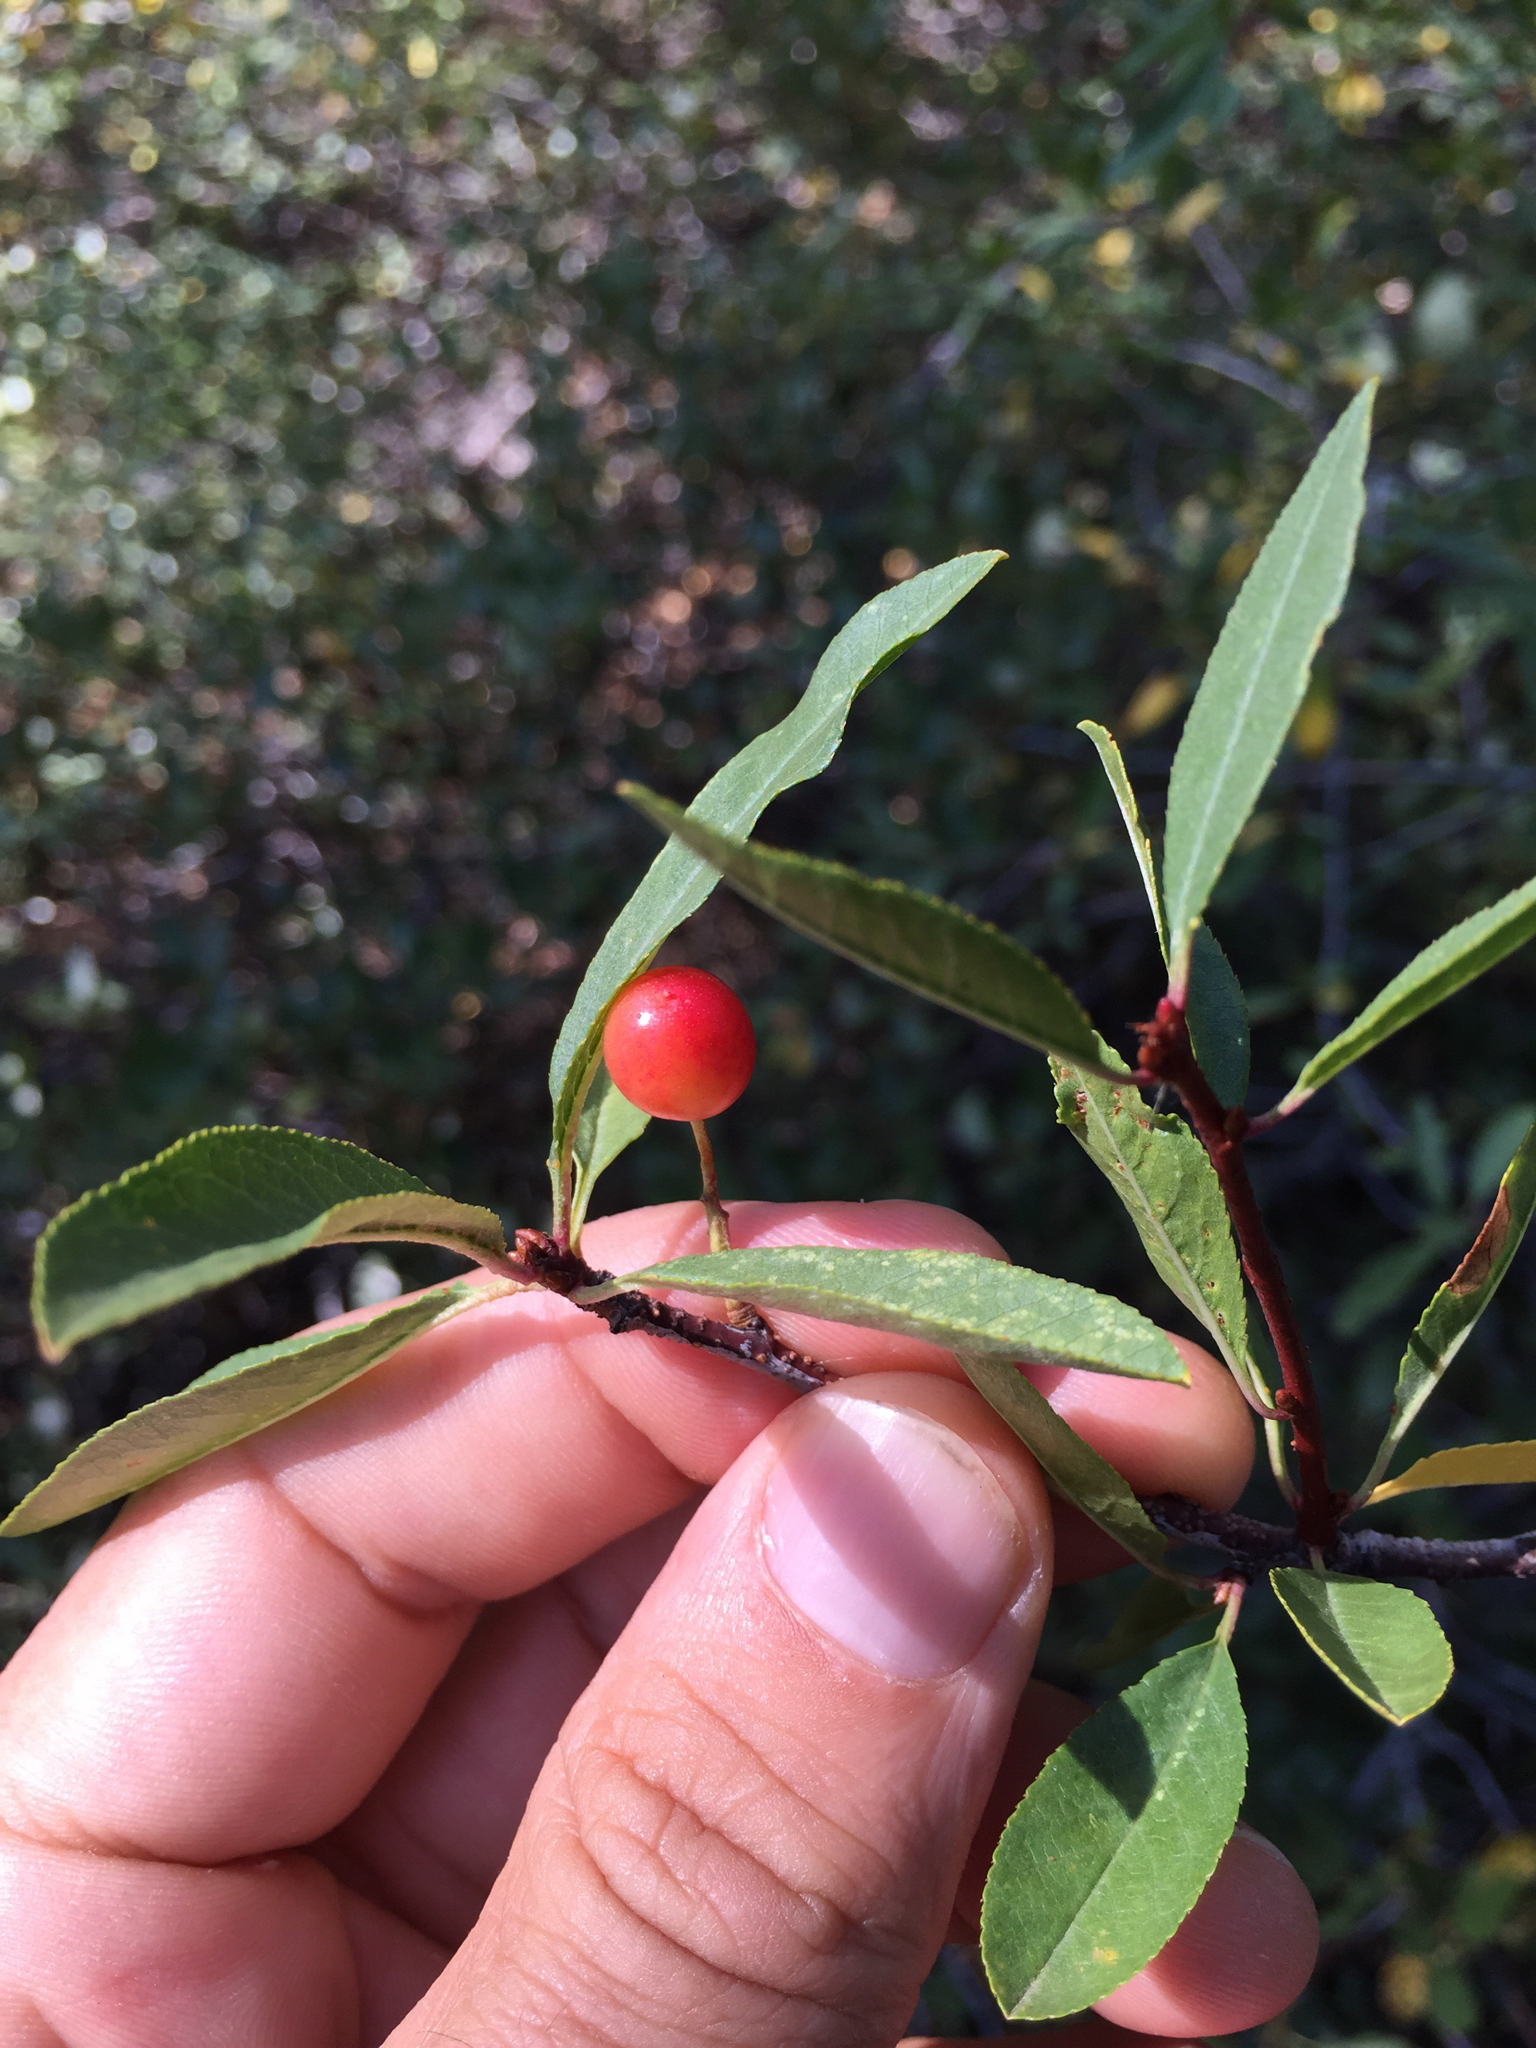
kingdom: Plantae
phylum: Tracheophyta
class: Magnoliopsida
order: Rosales
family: Rosaceae
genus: Prunus
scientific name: Prunus emarginata
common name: Bitter cherry
